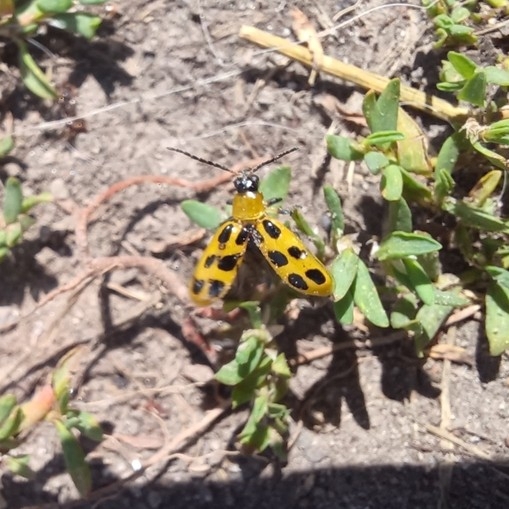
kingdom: Animalia
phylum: Arthropoda
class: Insecta
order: Coleoptera
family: Chrysomelidae
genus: Diabrotica
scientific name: Diabrotica undecimpunctata
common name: Spotted cucumber beetle
